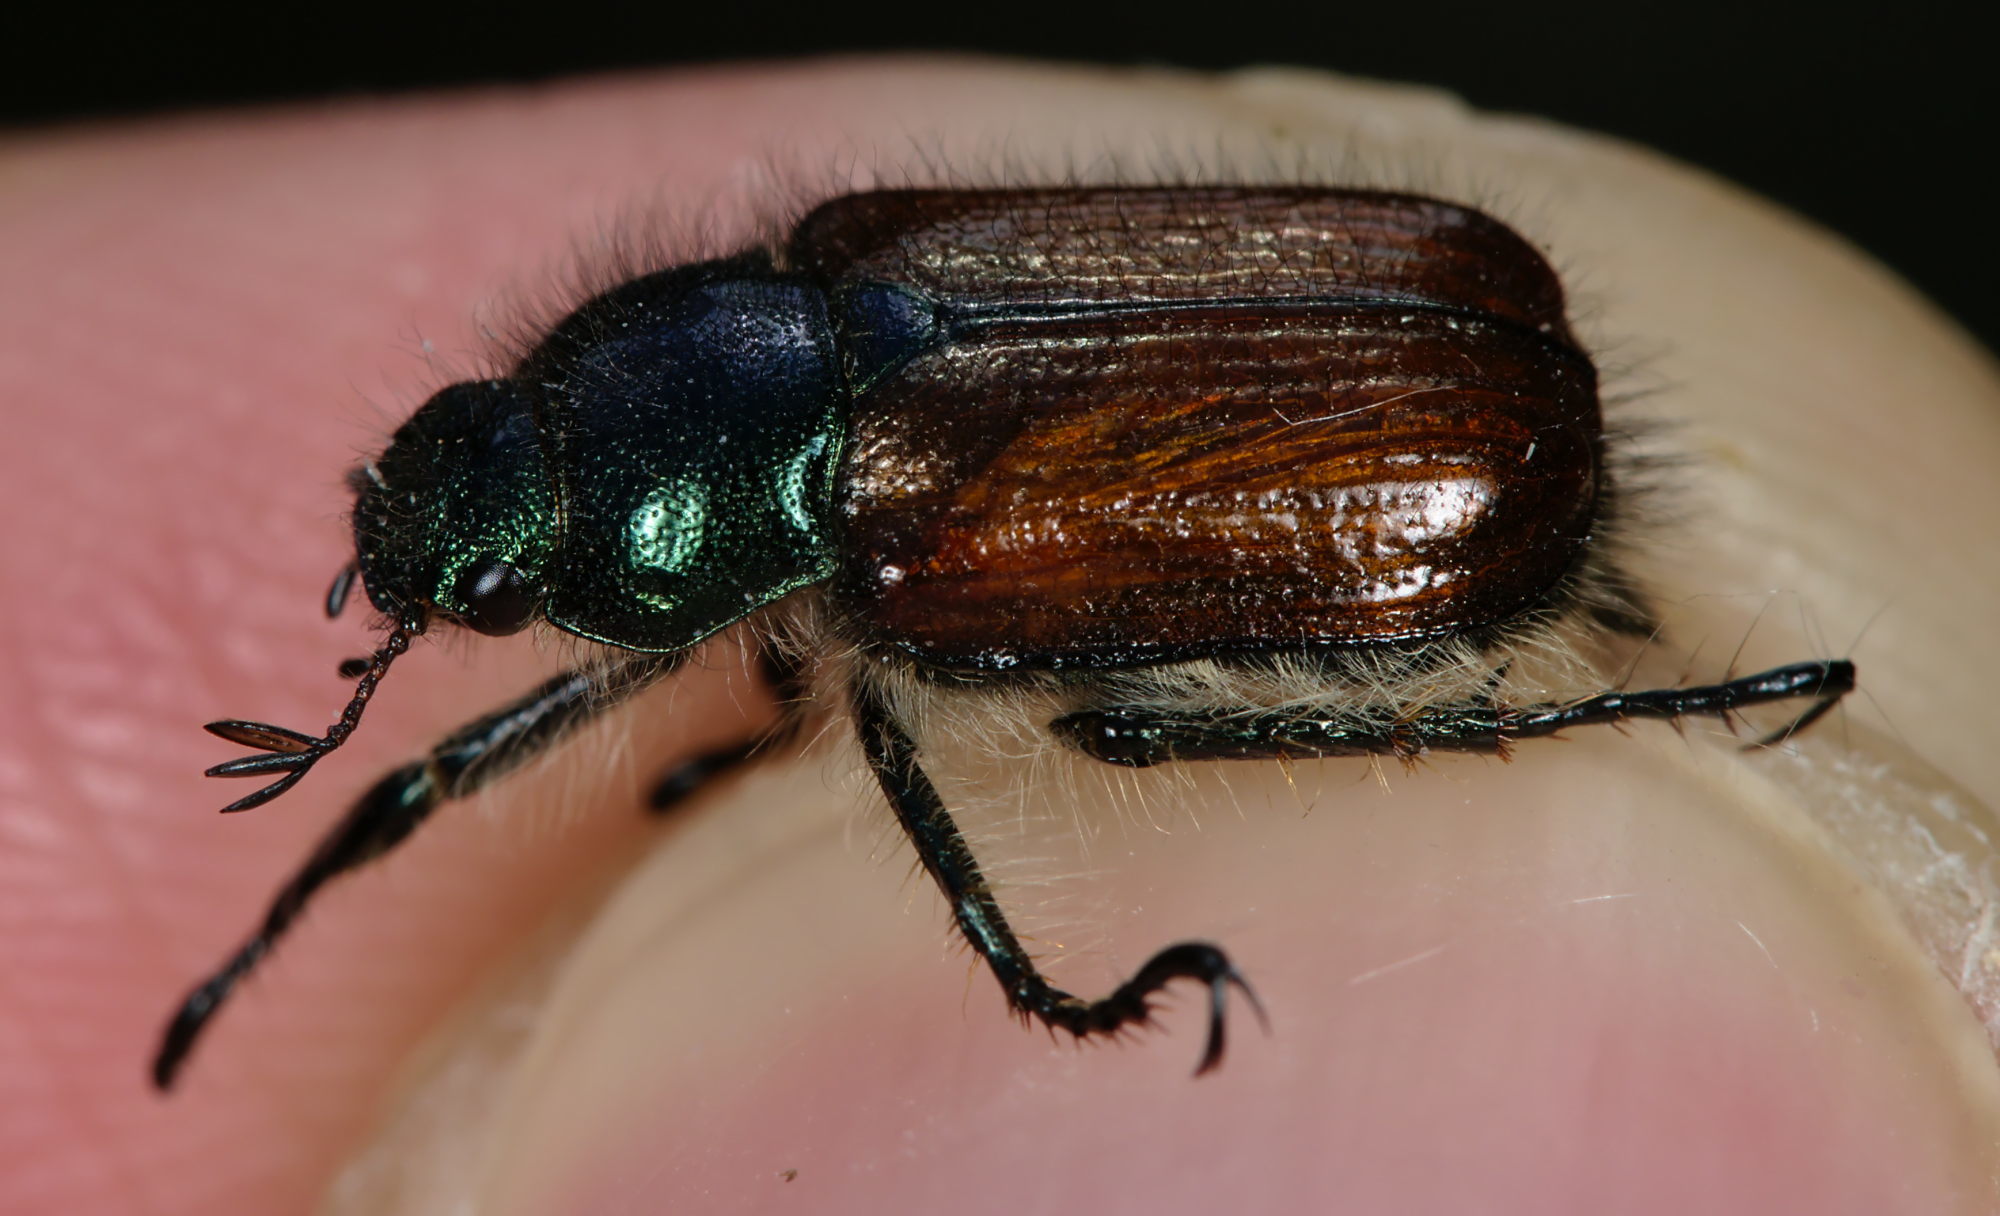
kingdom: Animalia
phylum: Arthropoda
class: Insecta
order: Coleoptera
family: Scarabaeidae
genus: Phyllopertha
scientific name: Phyllopertha horticola
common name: Garden chafer
